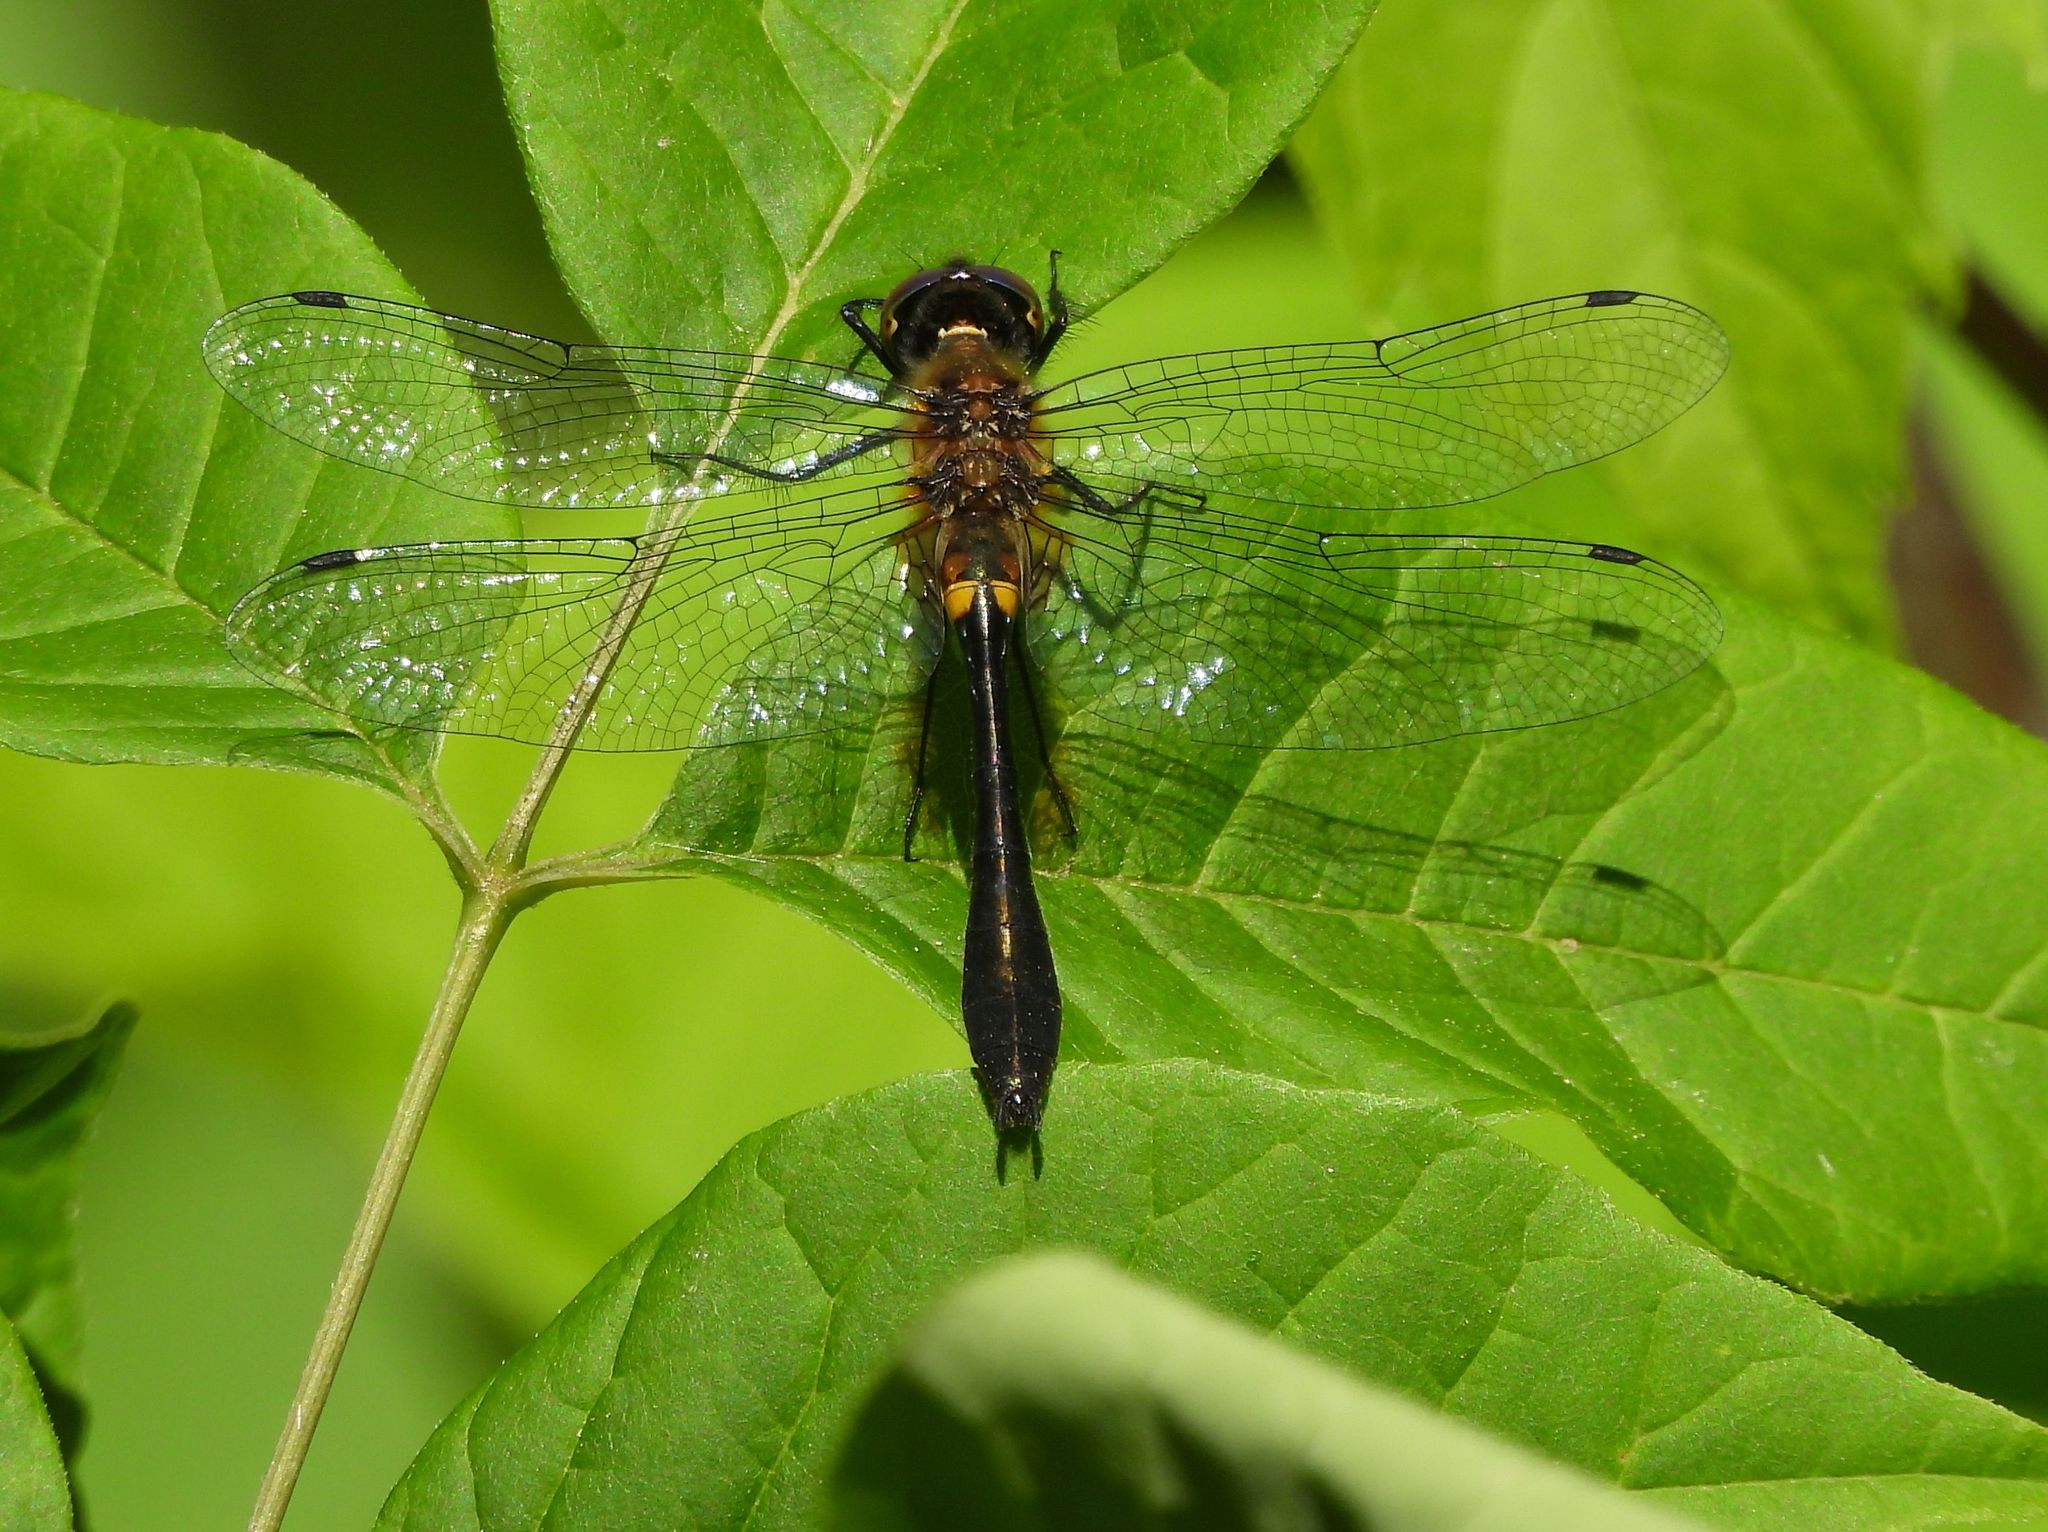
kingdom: Animalia
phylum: Arthropoda
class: Insecta
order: Odonata
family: Corduliidae
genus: Dorocordulia
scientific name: Dorocordulia libera
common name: Racket-tailed emerald
